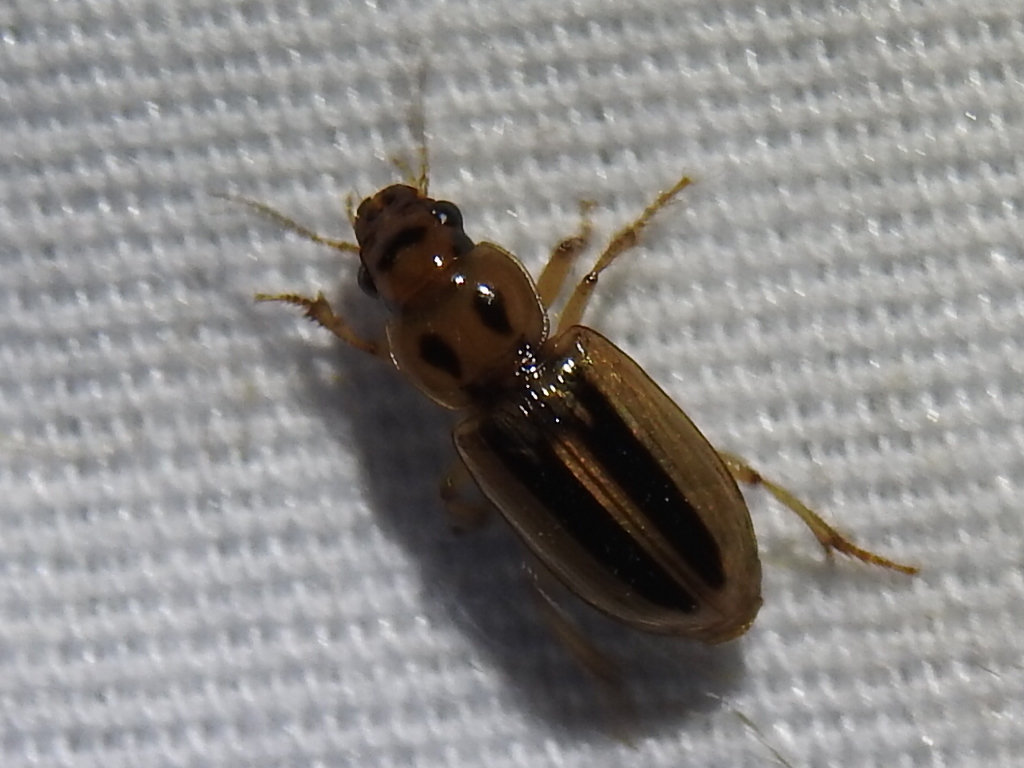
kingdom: Animalia
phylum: Arthropoda
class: Insecta
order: Coleoptera
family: Carabidae
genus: Stenolophus
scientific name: Stenolophus lineola
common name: Lined stenolophus
